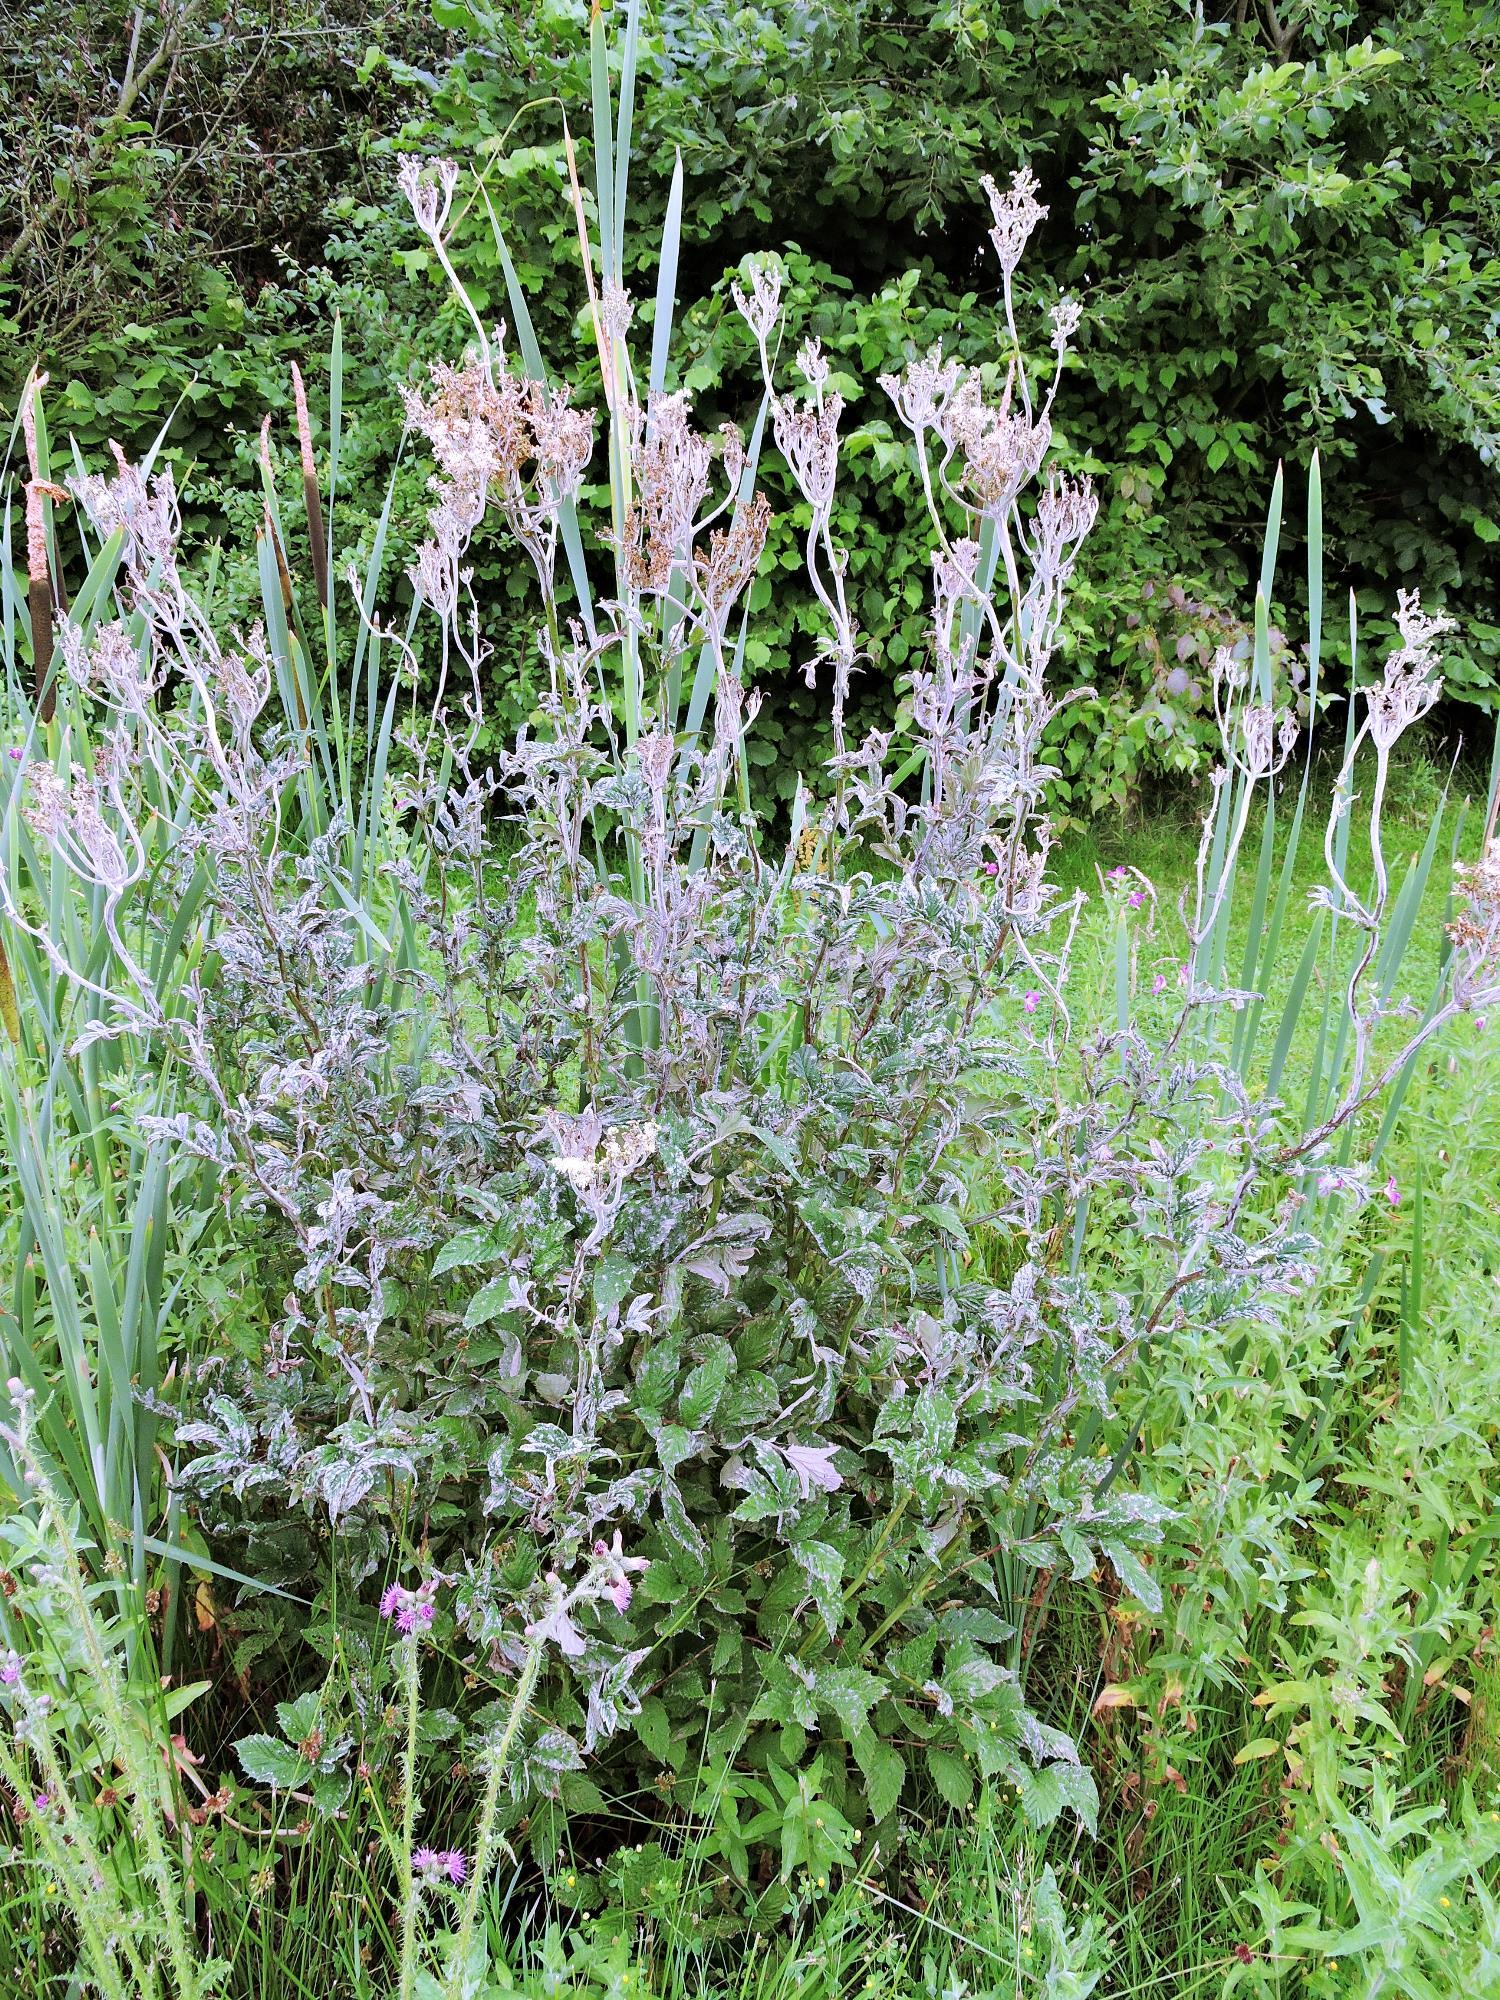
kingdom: Fungi
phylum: Ascomycota
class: Leotiomycetes
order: Helotiales
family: Erysiphaceae
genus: Podosphaera
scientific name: Podosphaera filipendulae
